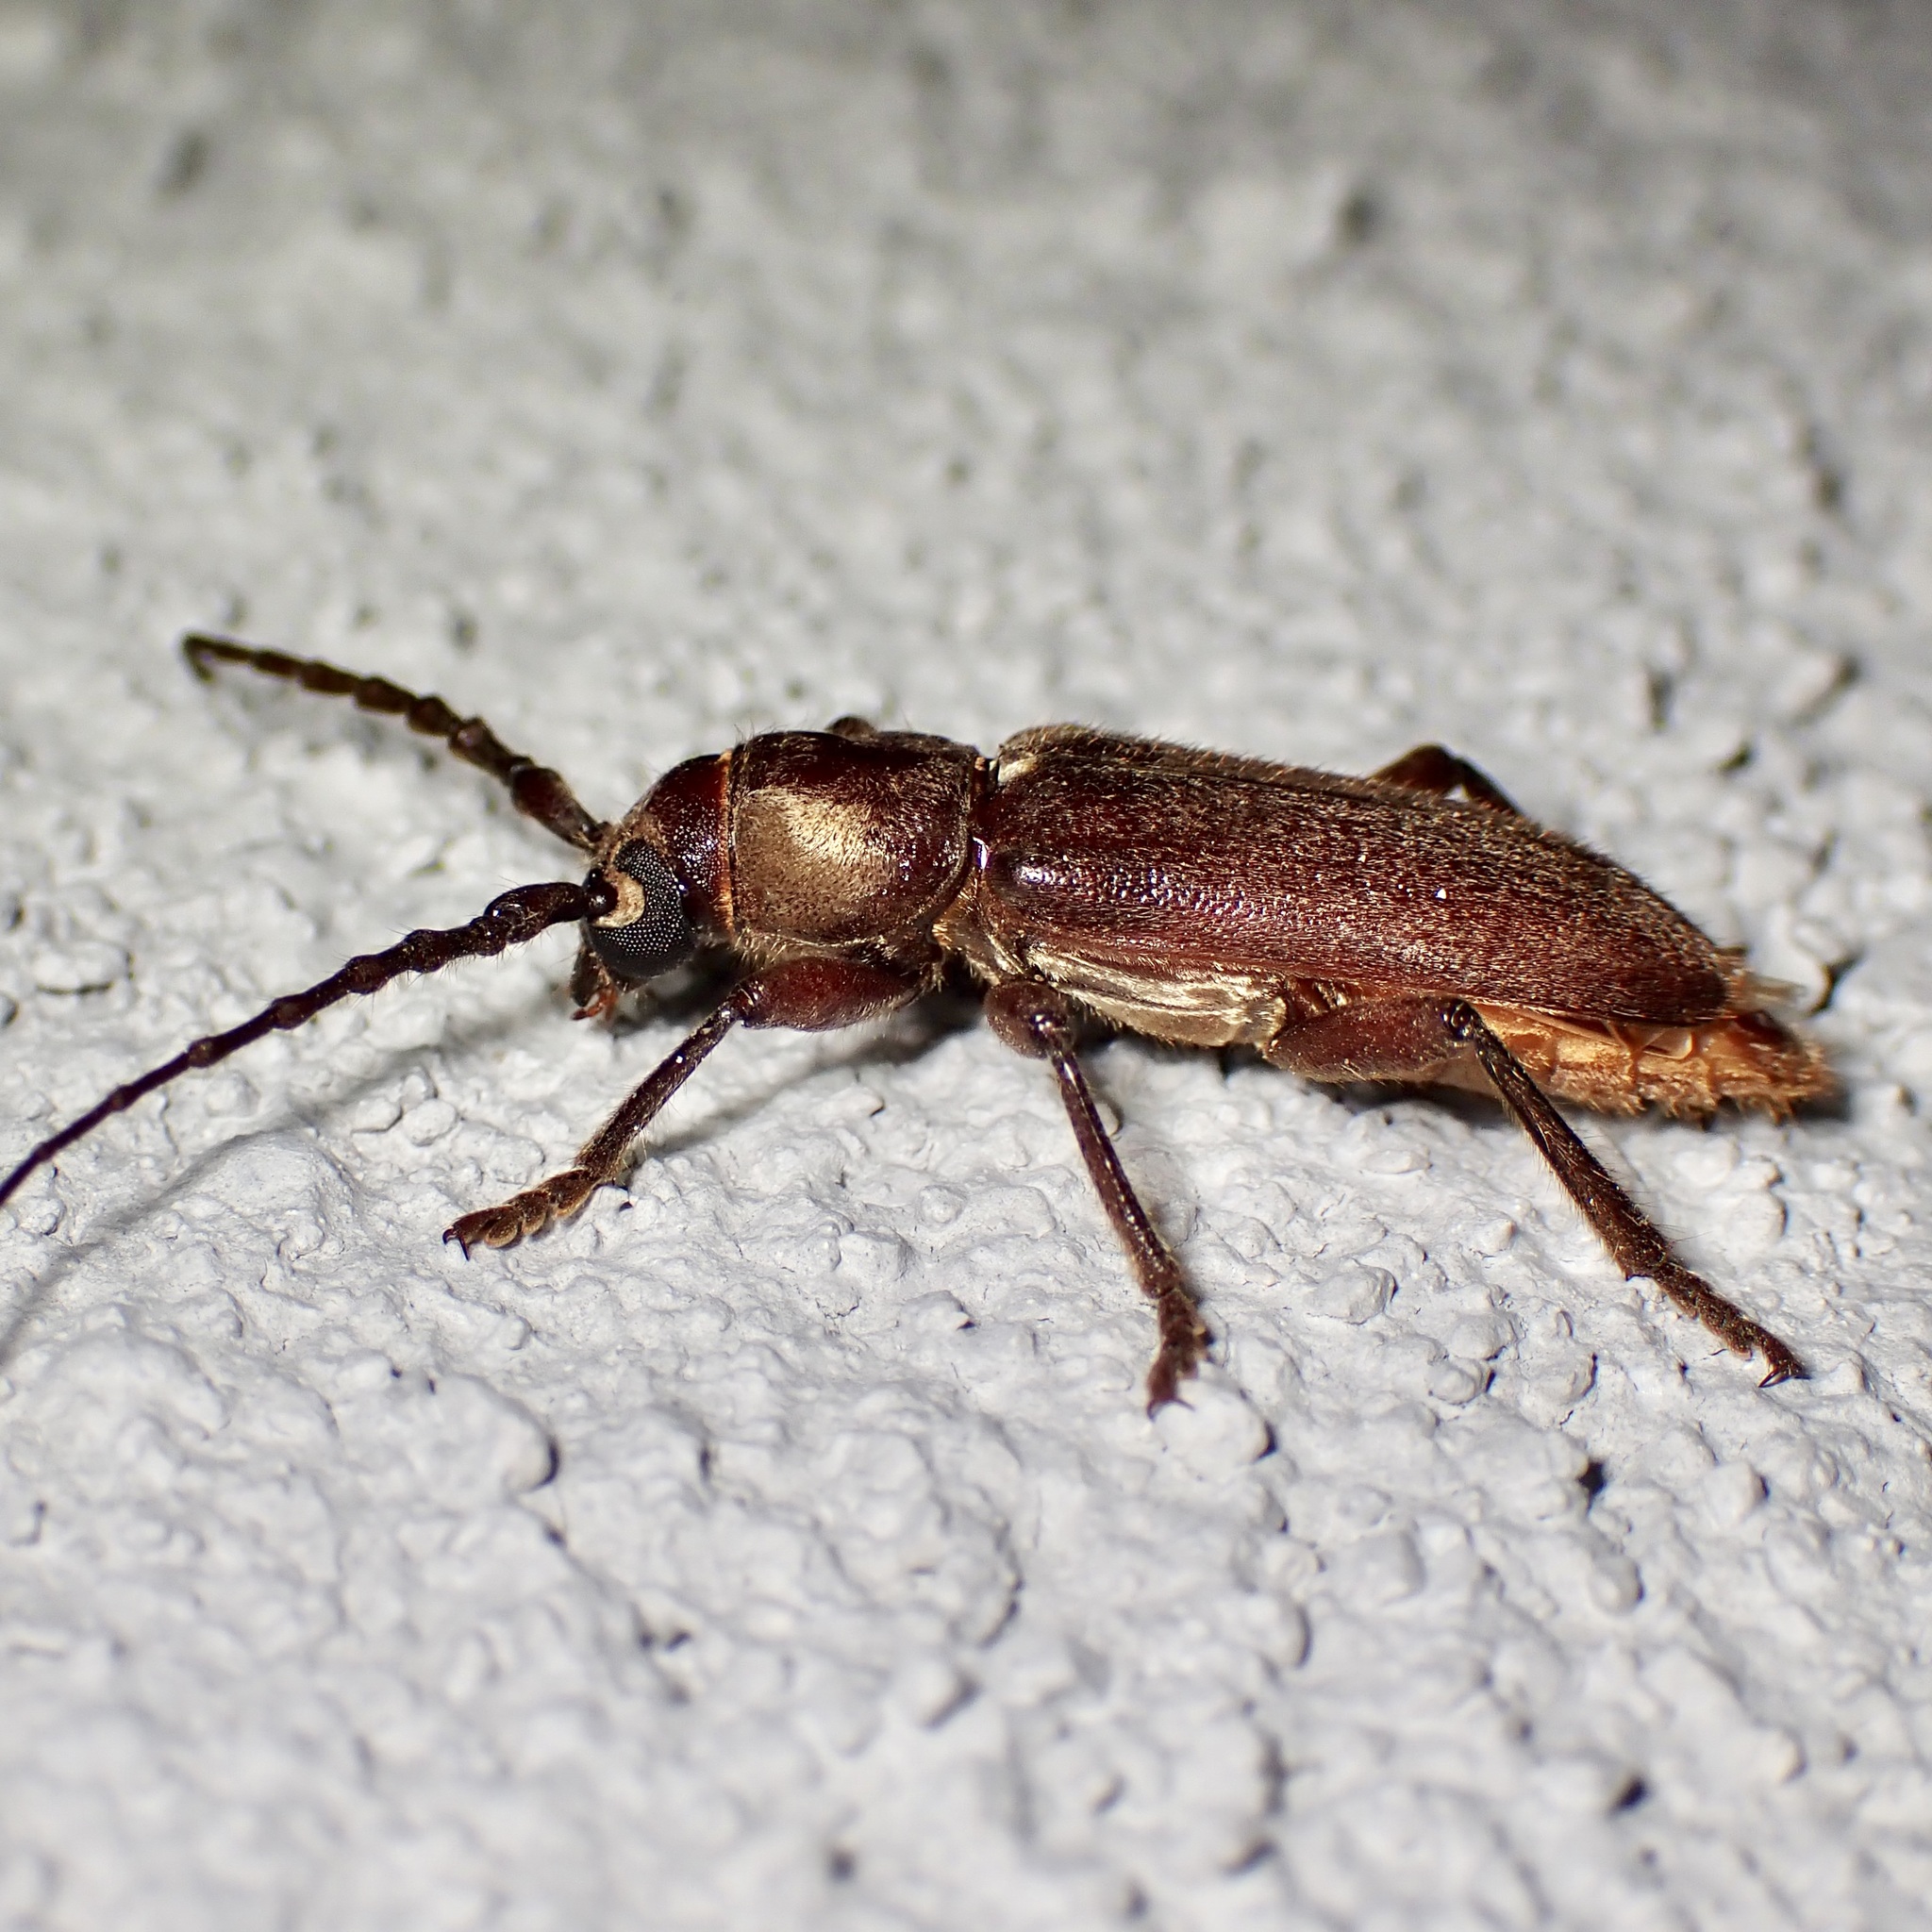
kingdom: Animalia
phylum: Arthropoda
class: Insecta
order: Coleoptera
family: Cerambycidae
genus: Eustromula
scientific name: Eustromula validum
